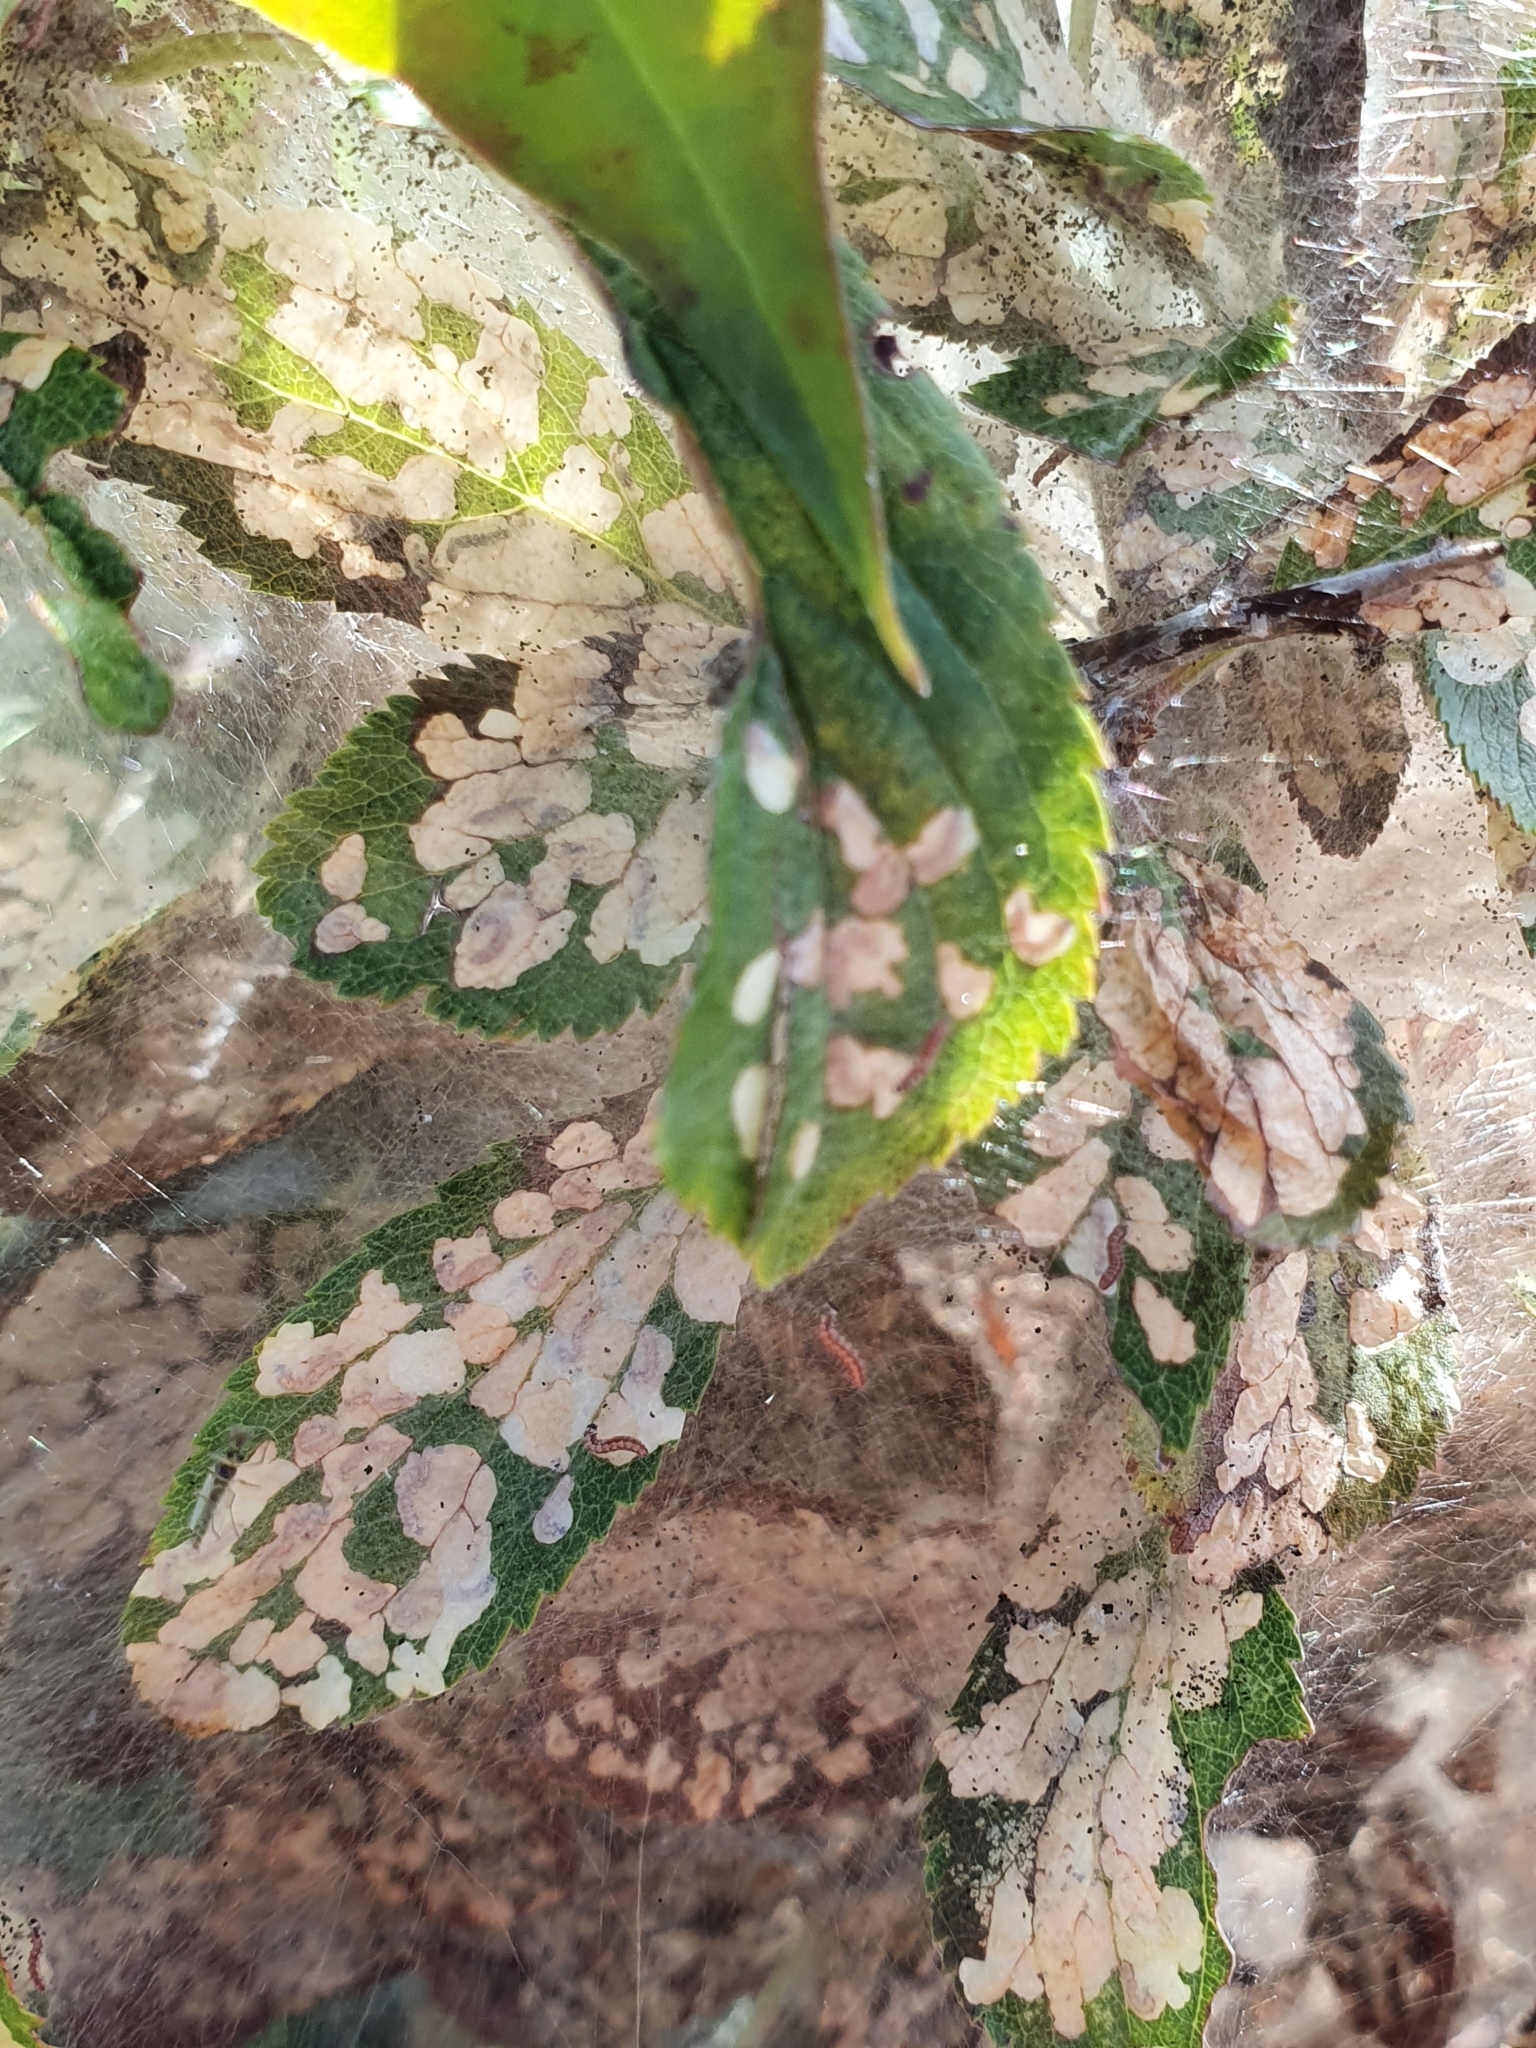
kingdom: Animalia
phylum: Arthropoda
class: Insecta
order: Lepidoptera
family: Yponomeutidae
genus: Scythropia
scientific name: Scythropia crataegella
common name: Hawthorn moth
